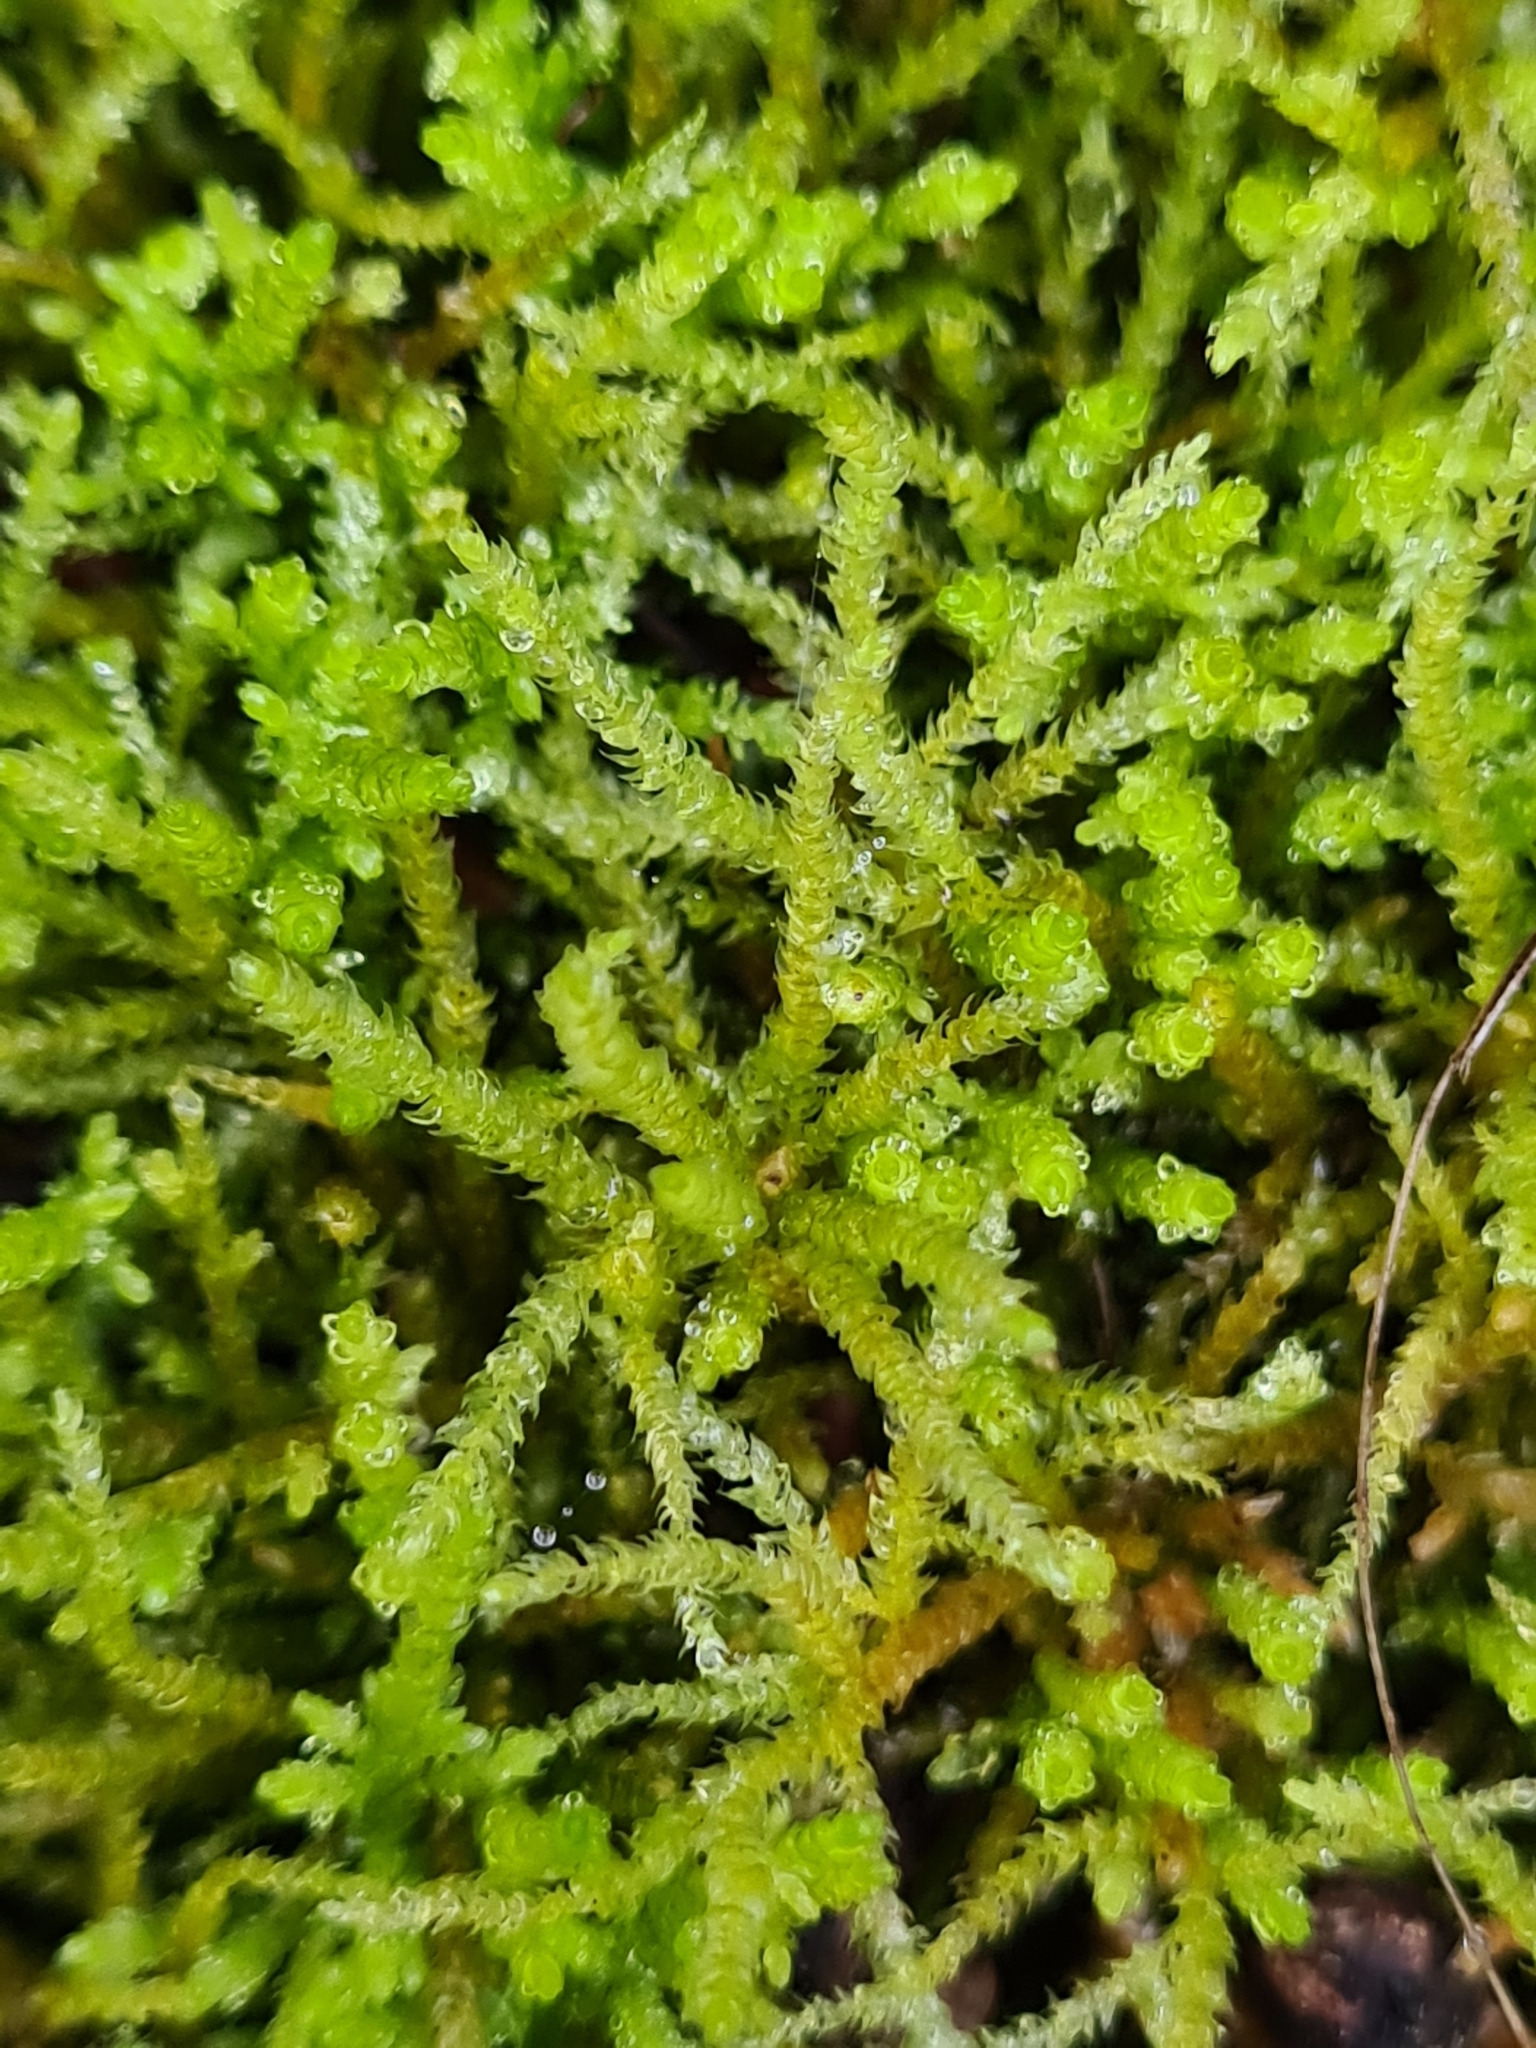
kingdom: Plantae
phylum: Bryophyta
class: Bryopsida
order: Hypnales
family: Brachytheciaceae
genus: Eurhynchium
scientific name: Eurhynchium angustirete
